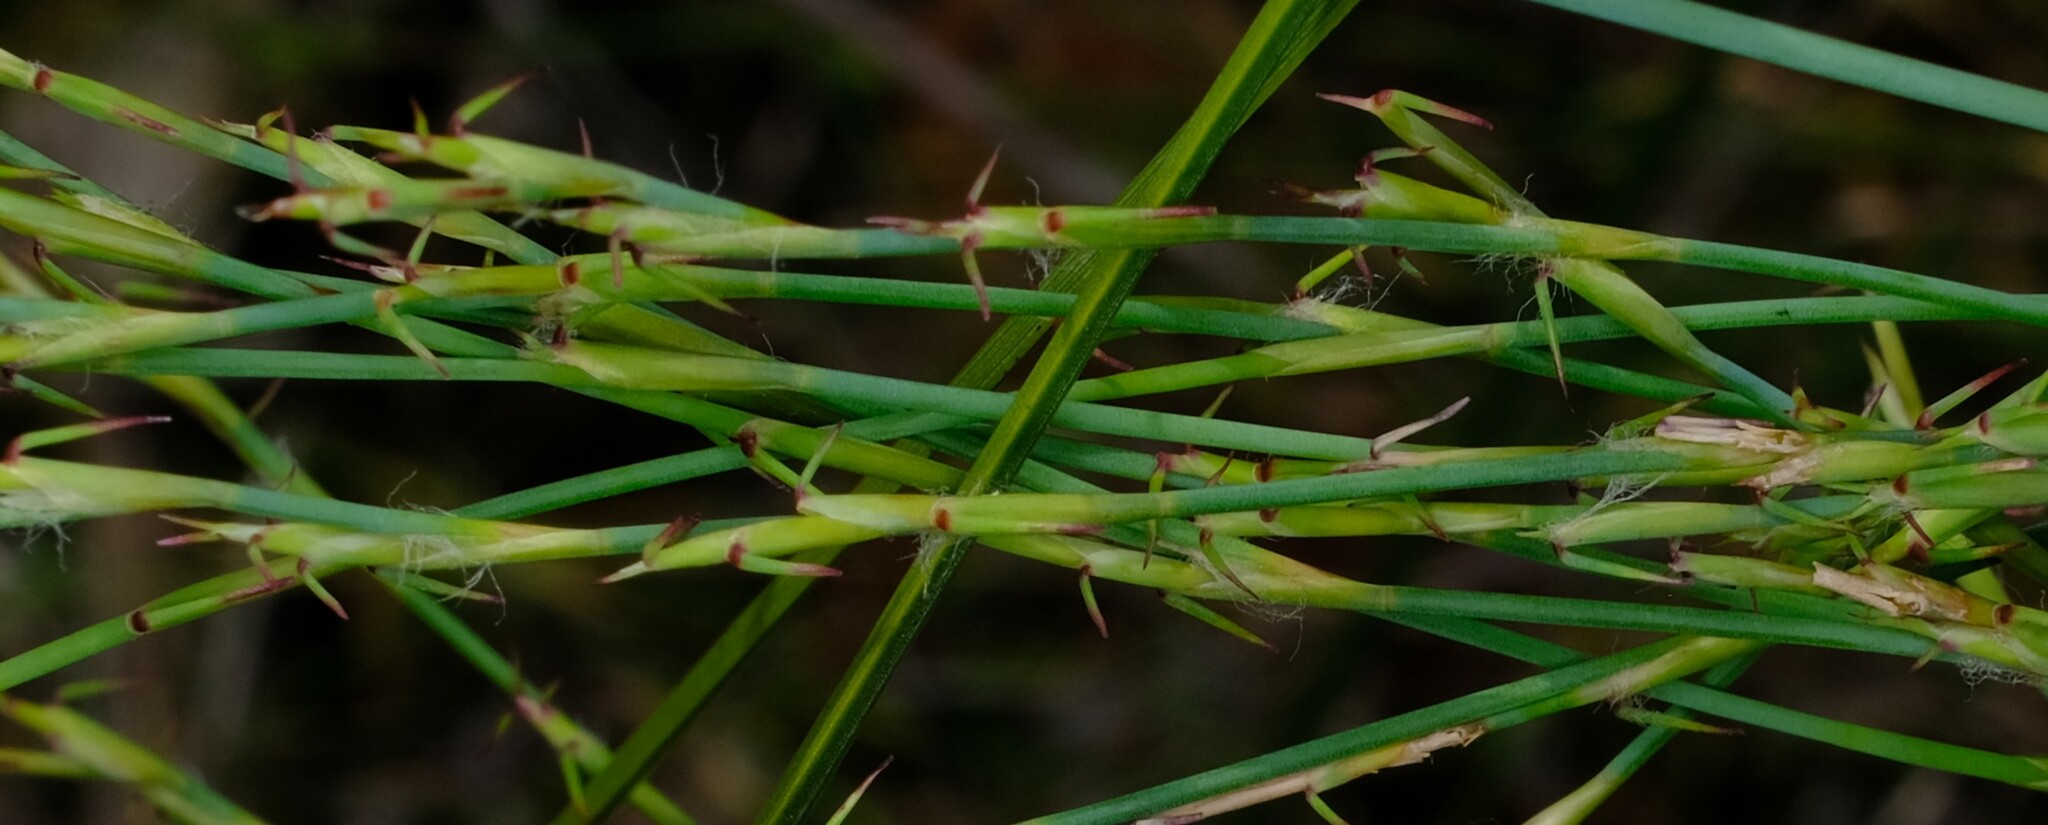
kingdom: Plantae
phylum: Tracheophyta
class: Liliopsida
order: Poales
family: Restionaceae
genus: Empodisma
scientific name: Empodisma minus
